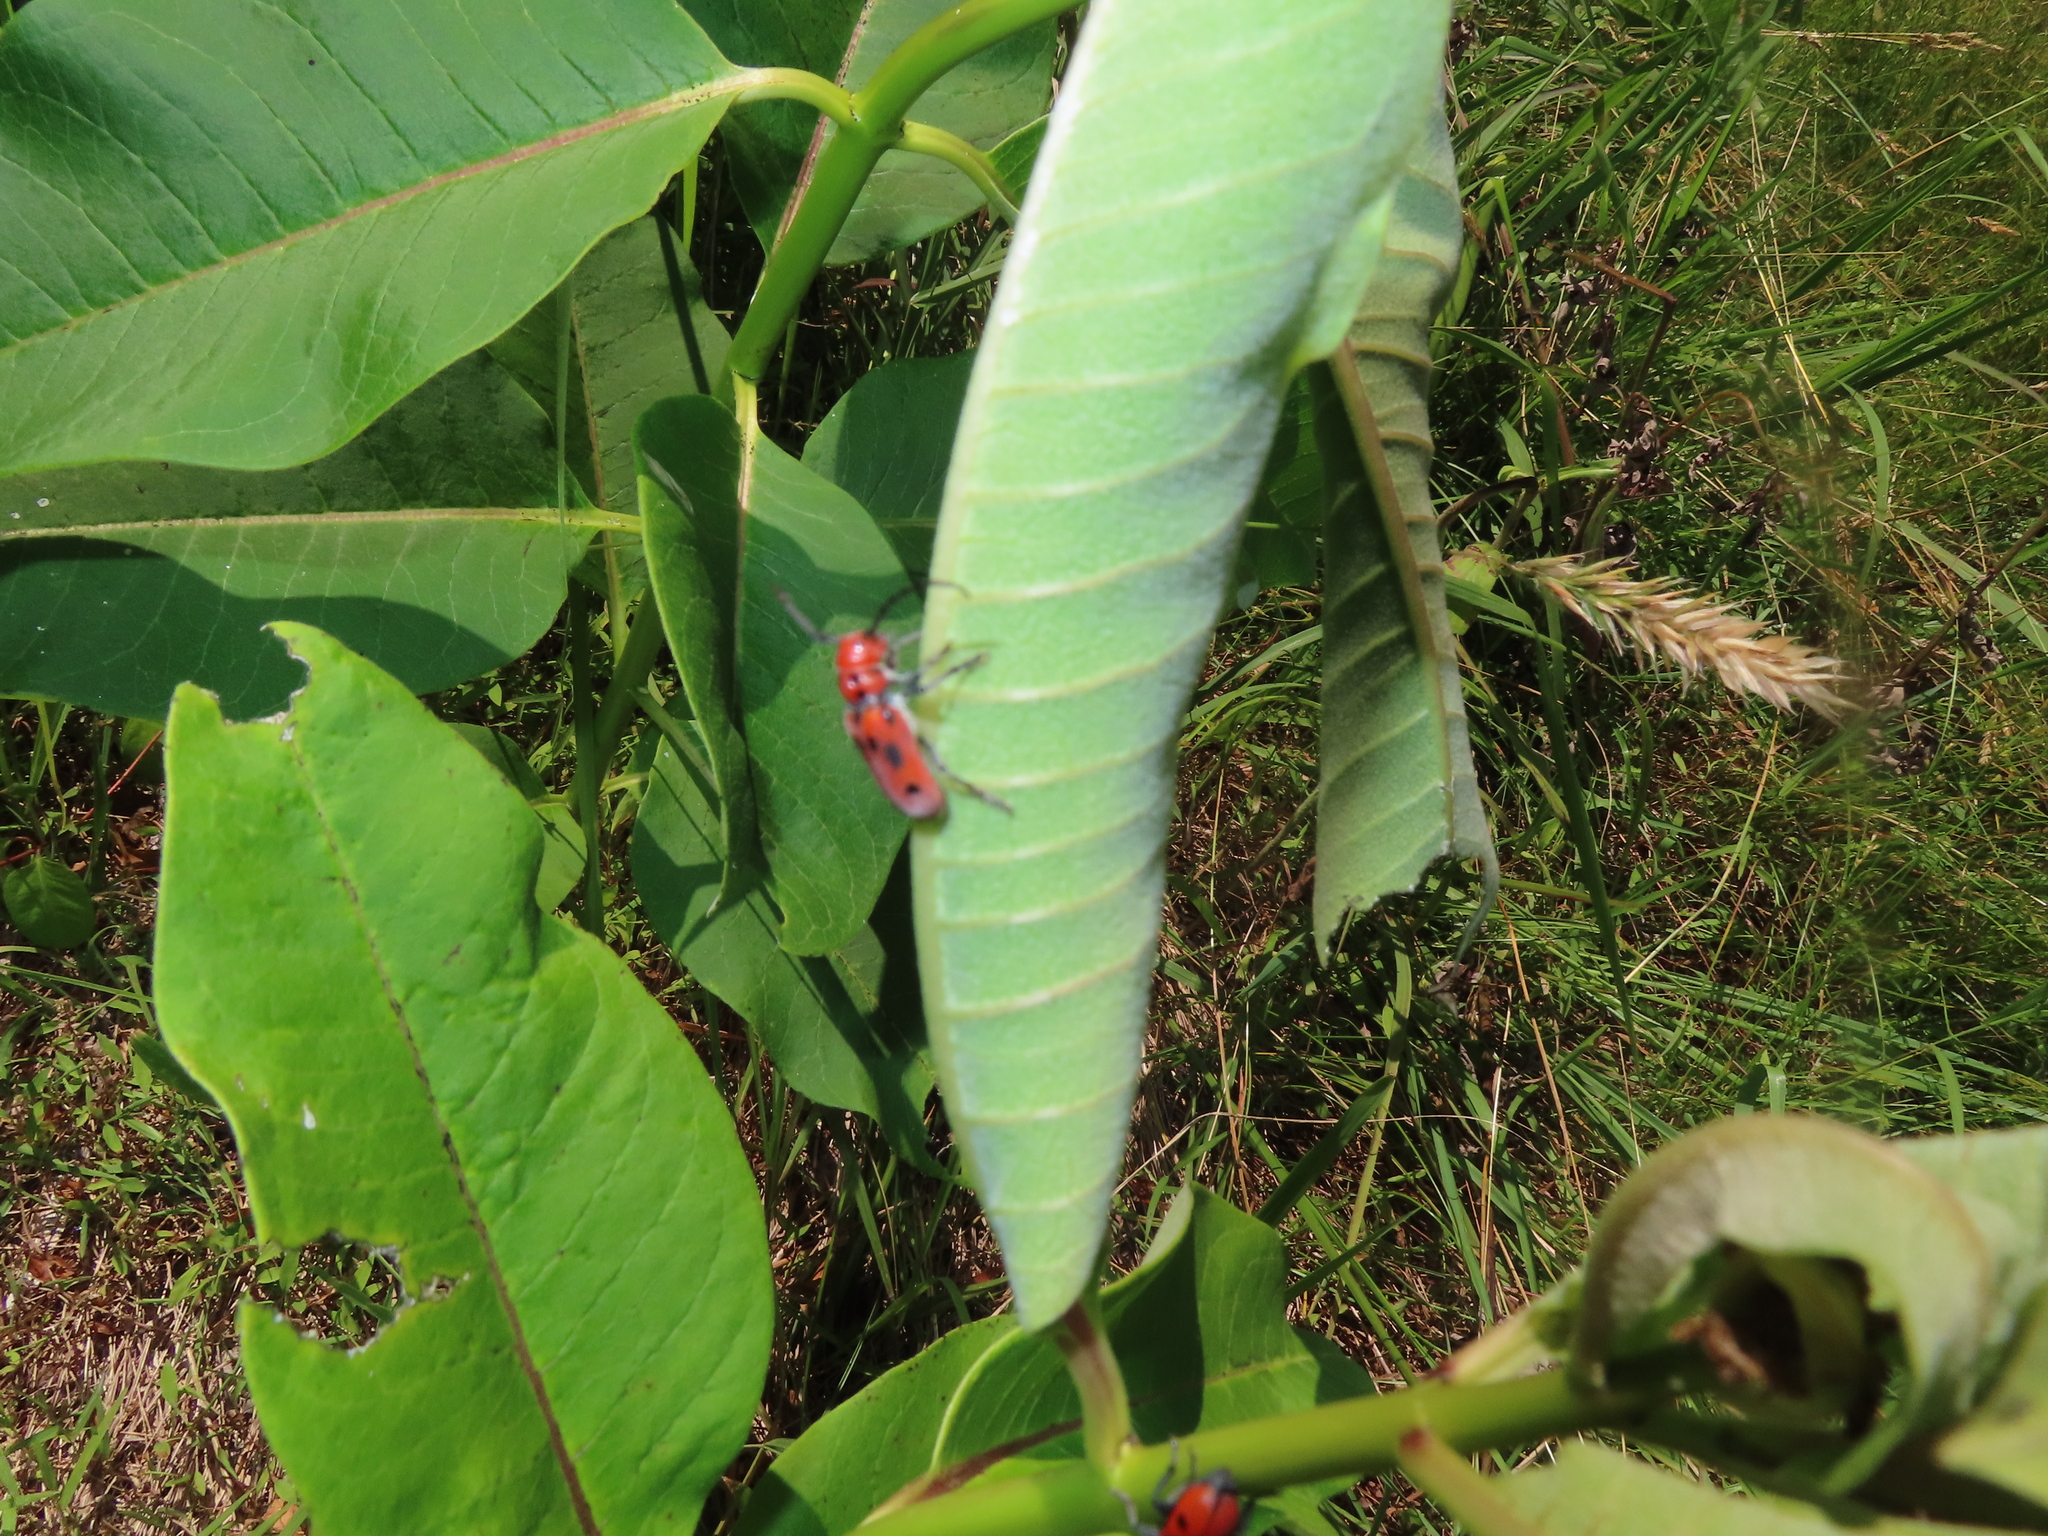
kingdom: Animalia
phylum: Arthropoda
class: Insecta
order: Coleoptera
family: Cerambycidae
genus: Tetraopes
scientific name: Tetraopes tetrophthalmus
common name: Red milkweed beetle
